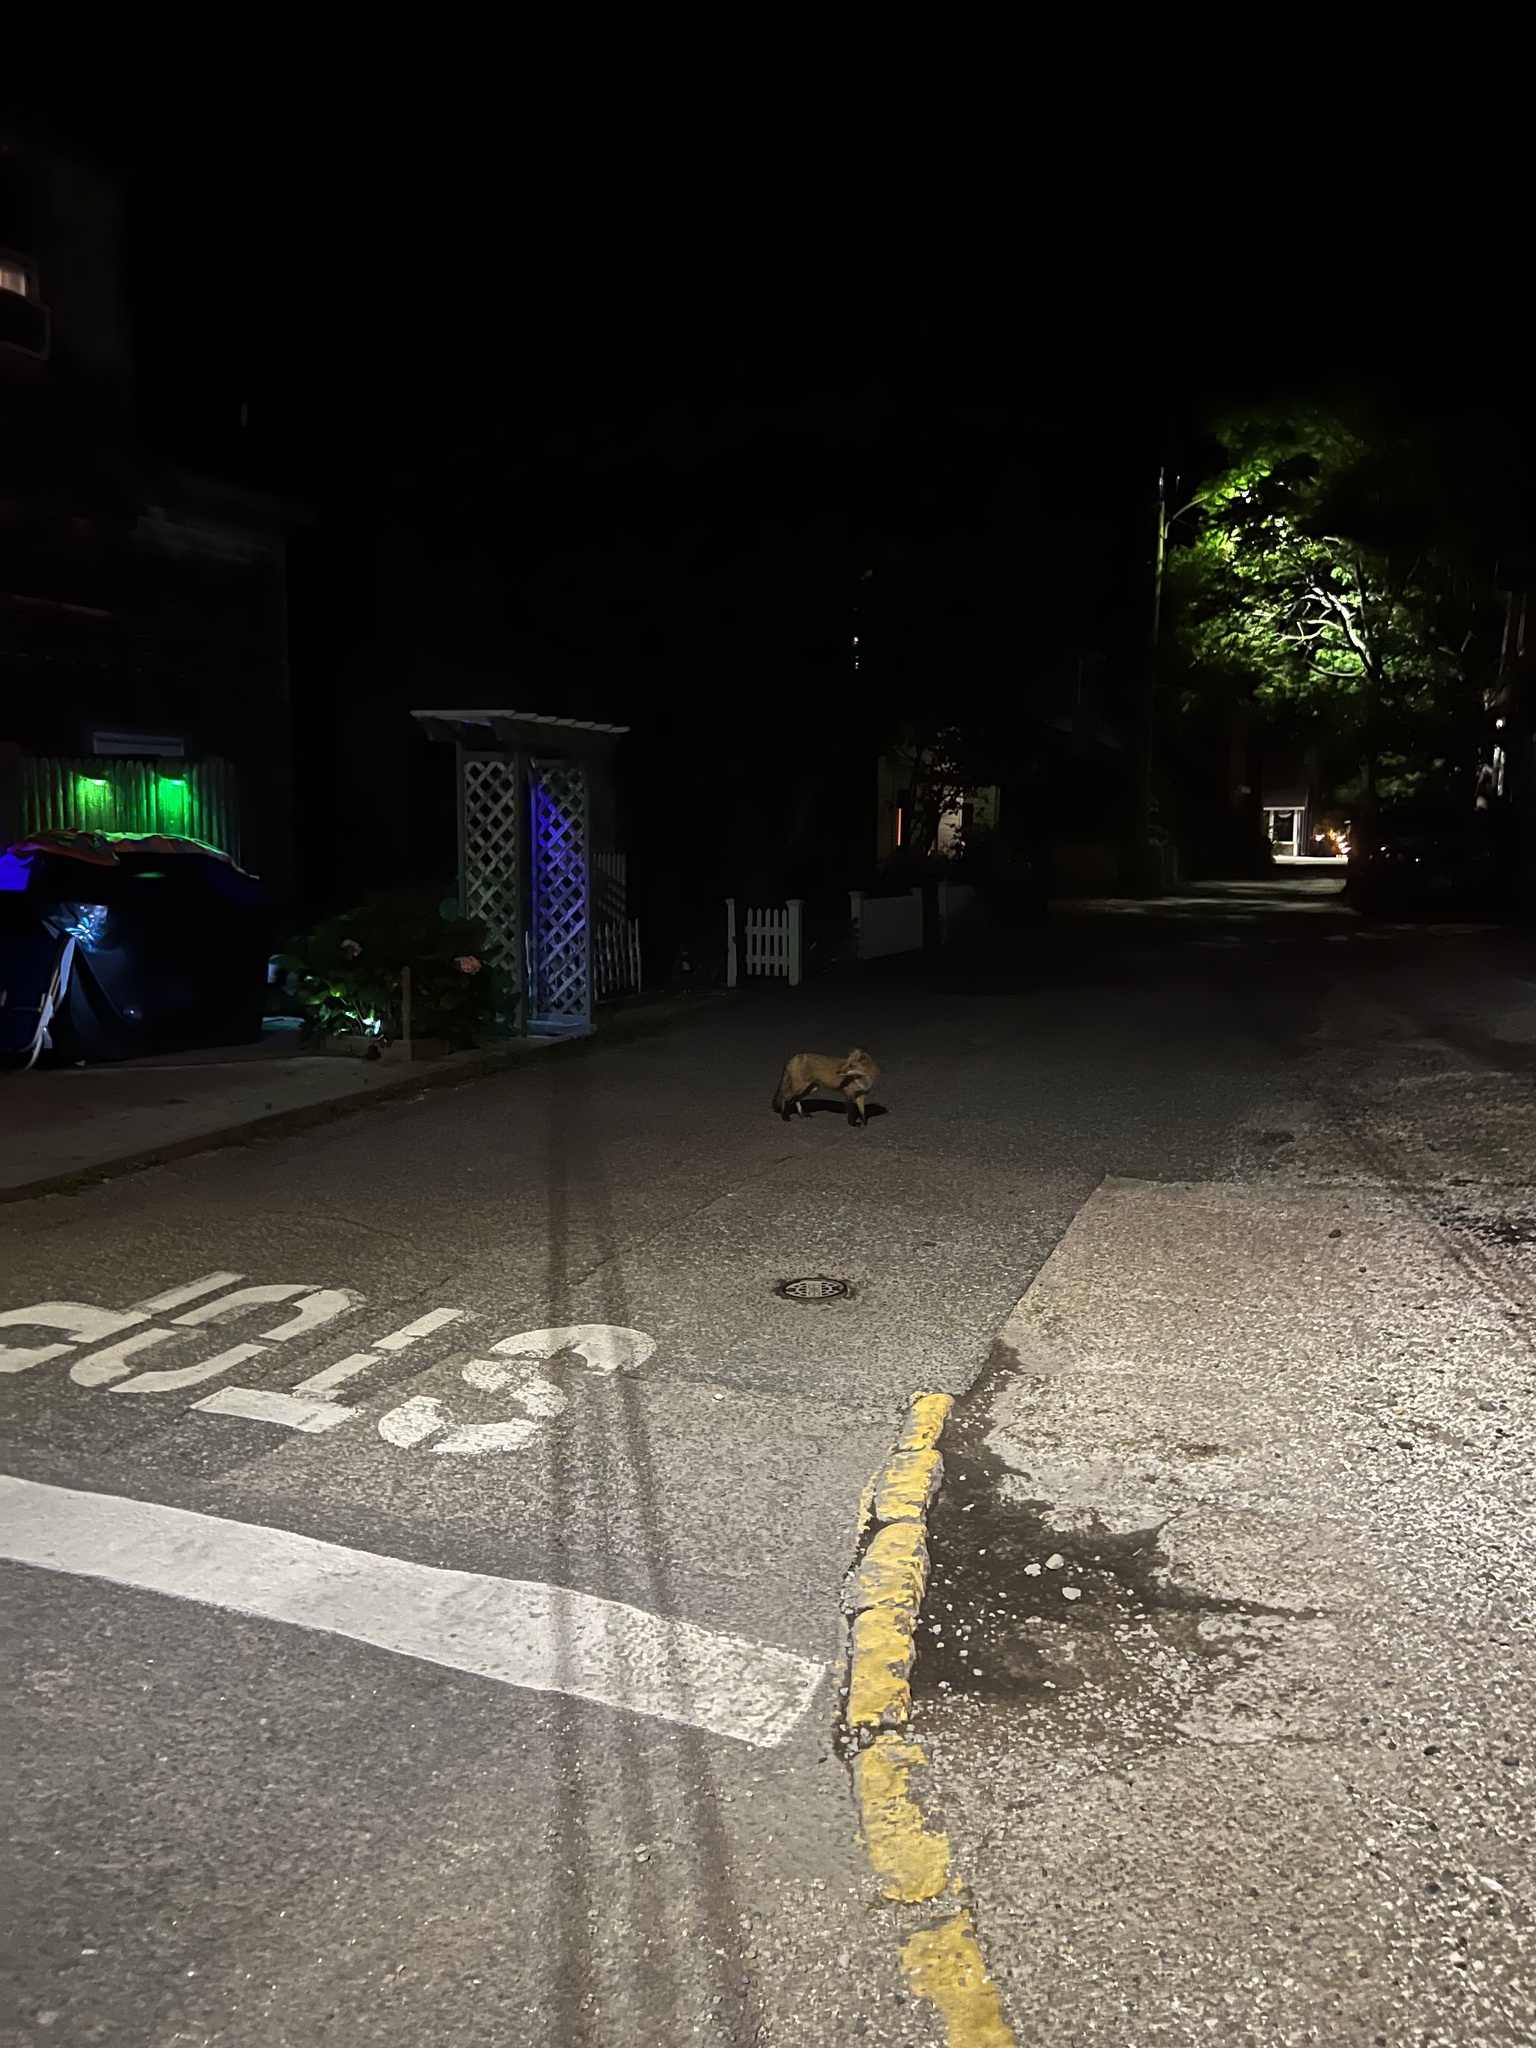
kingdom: Animalia
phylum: Chordata
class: Mammalia
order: Carnivora
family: Canidae
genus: Vulpes
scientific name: Vulpes vulpes
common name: Red fox
